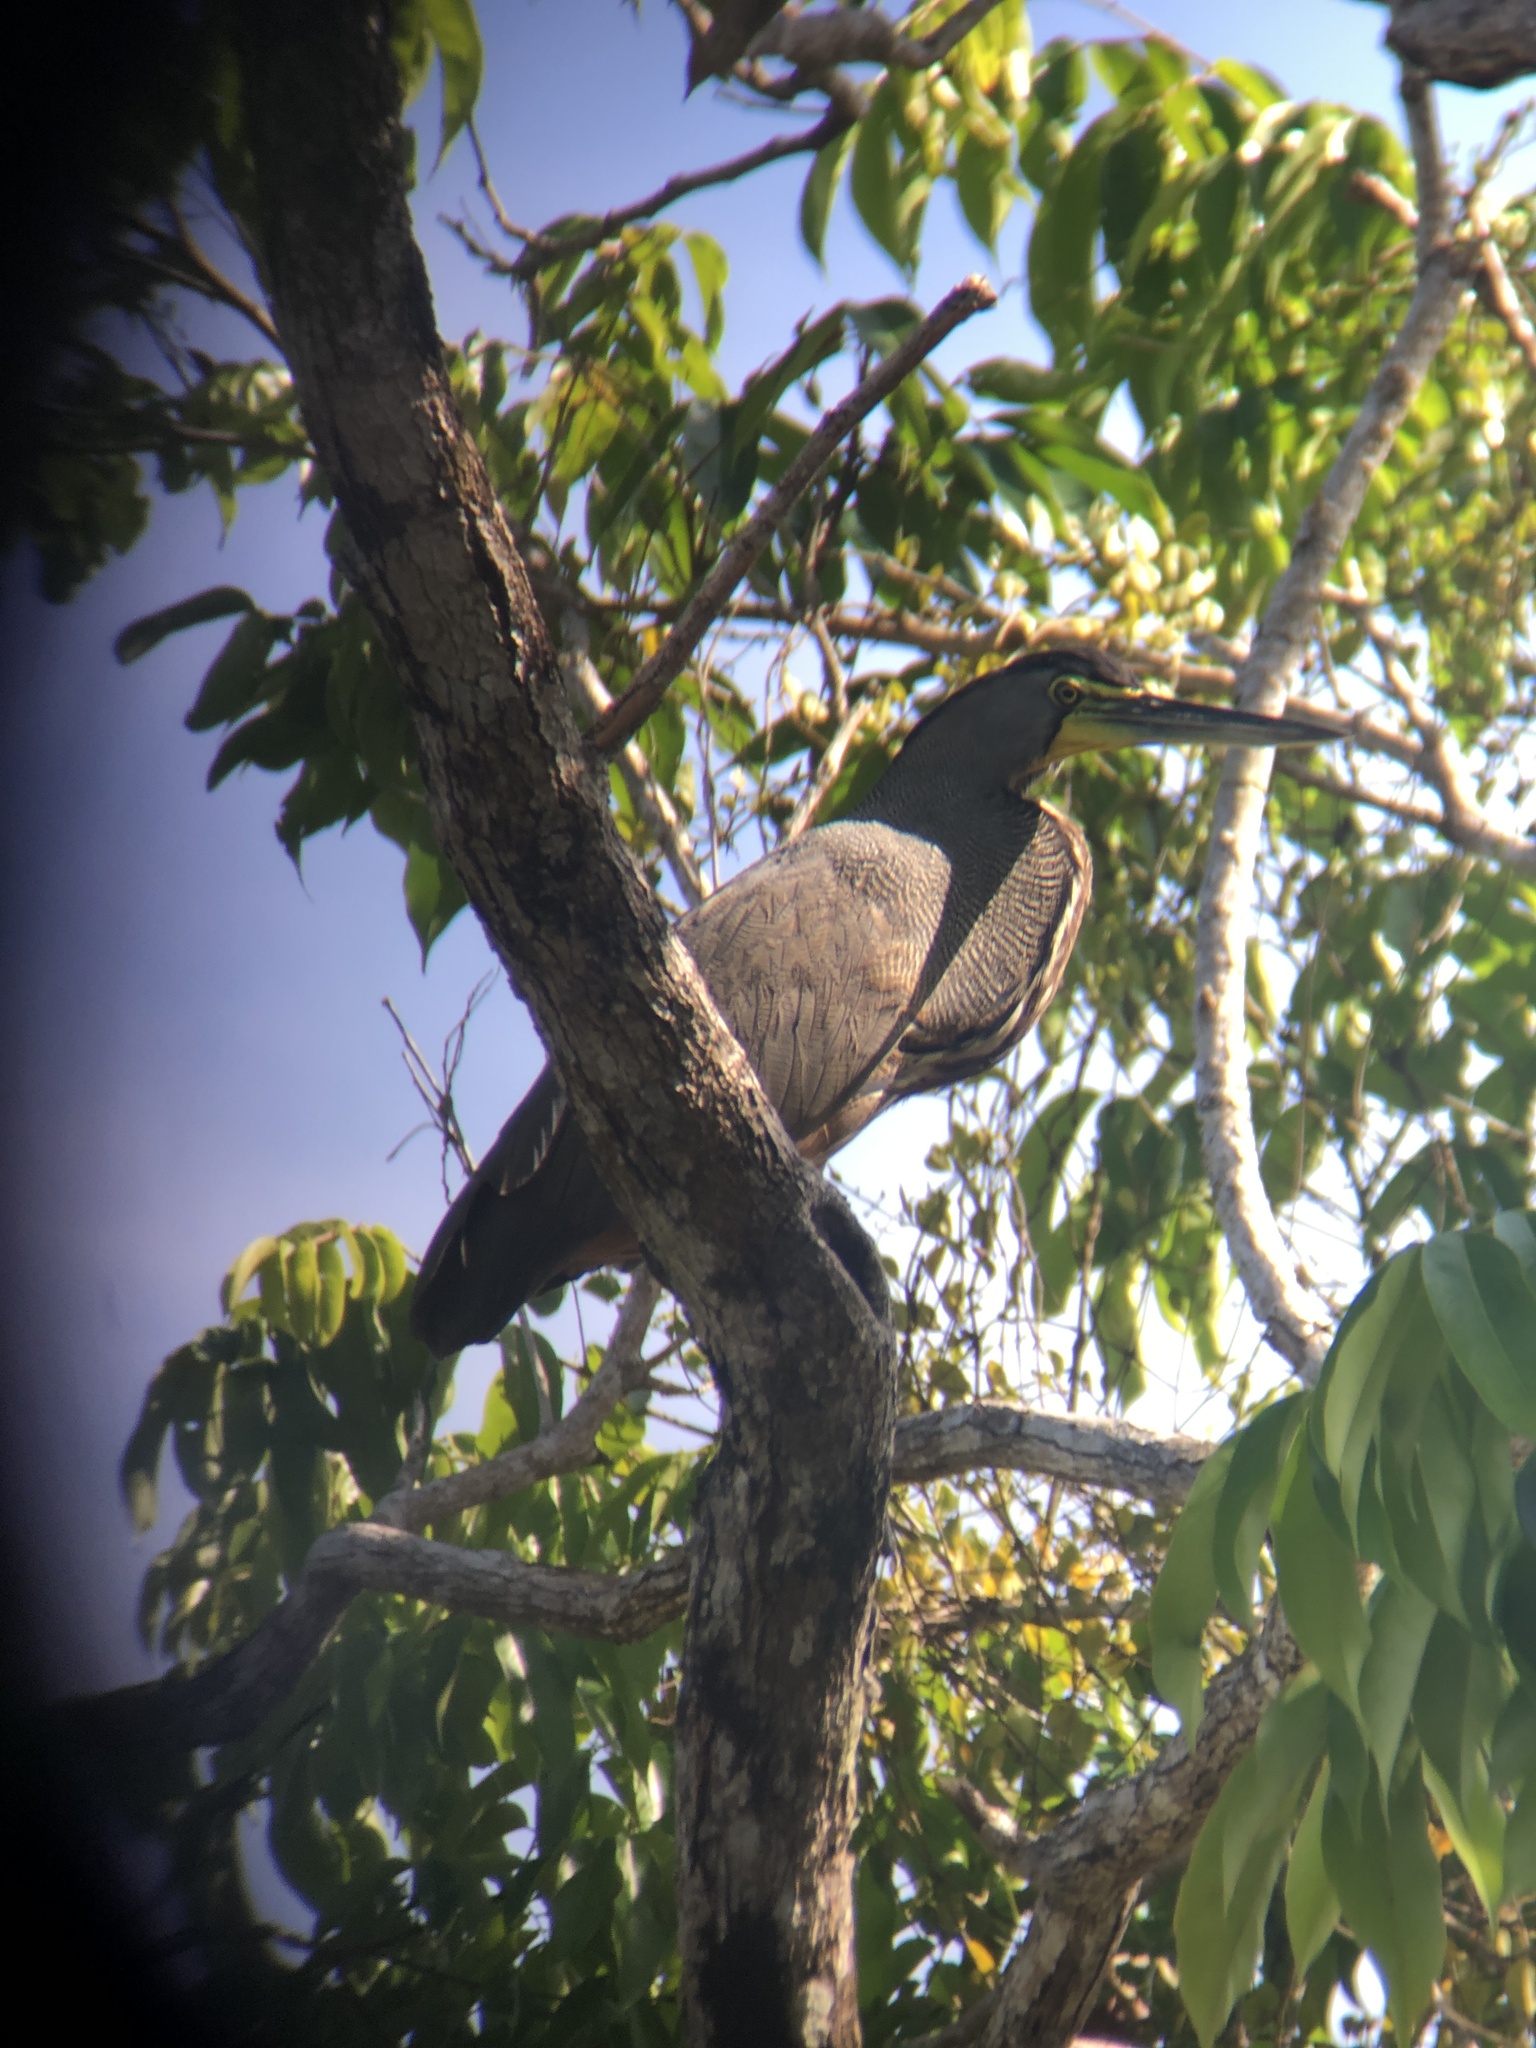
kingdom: Animalia
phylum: Chordata
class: Aves
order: Pelecaniformes
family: Ardeidae
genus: Tigrisoma
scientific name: Tigrisoma mexicanum
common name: Bare-throated tiger-heron
